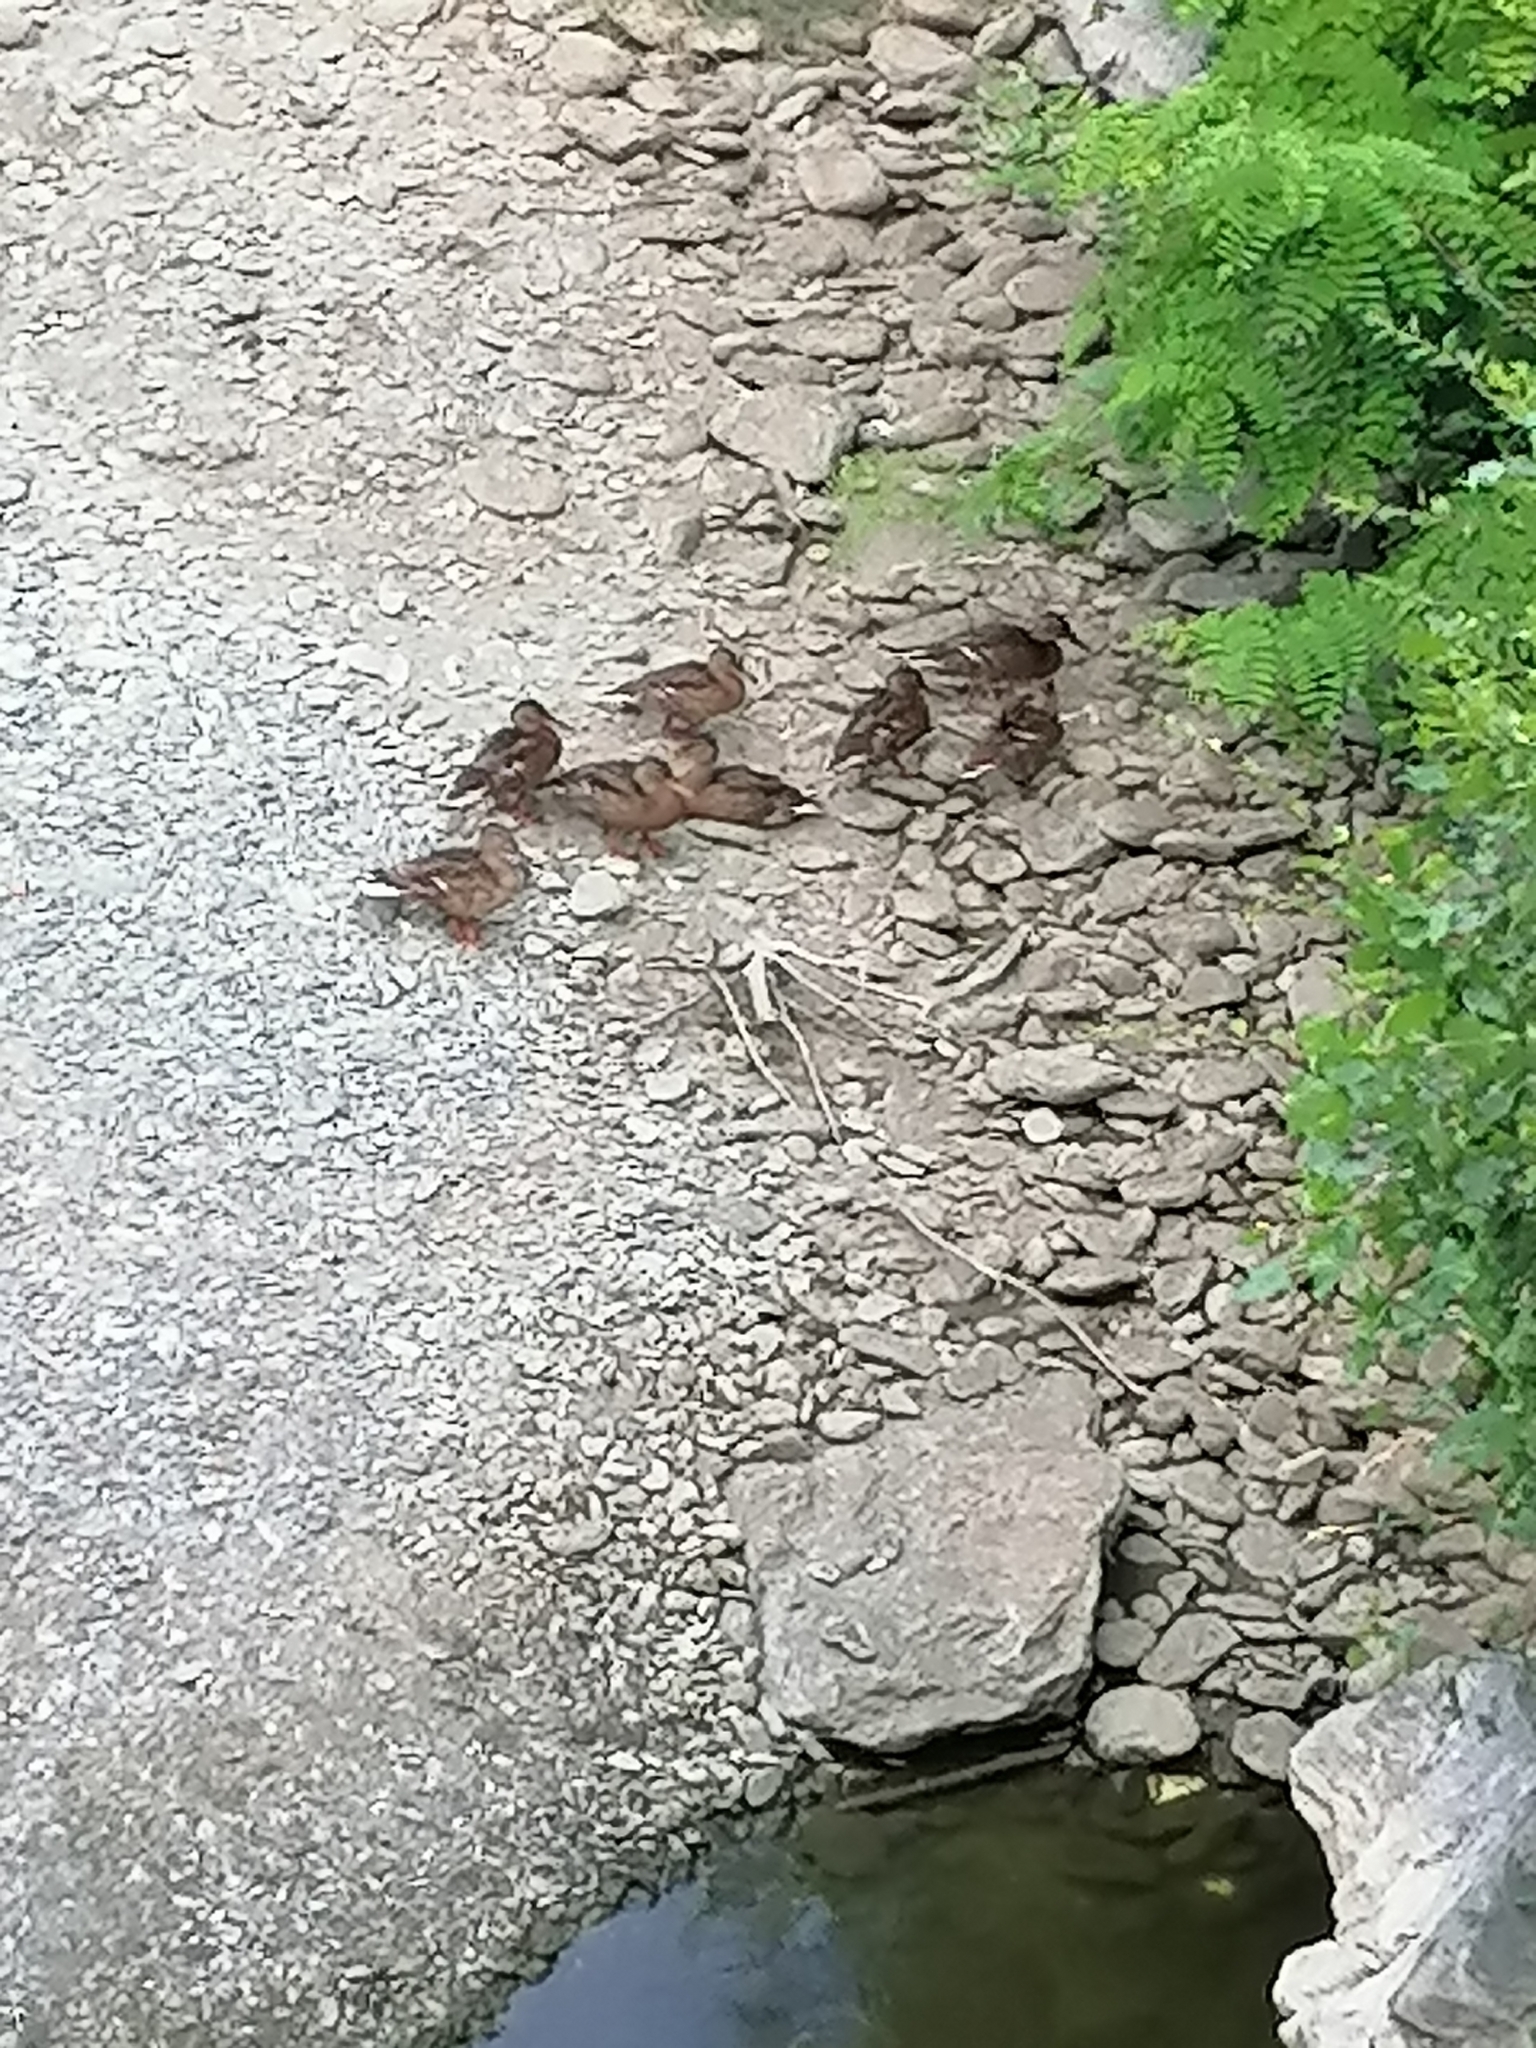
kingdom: Animalia
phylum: Chordata
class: Aves
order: Anseriformes
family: Anatidae
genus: Anas
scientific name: Anas platyrhynchos
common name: Mallard
